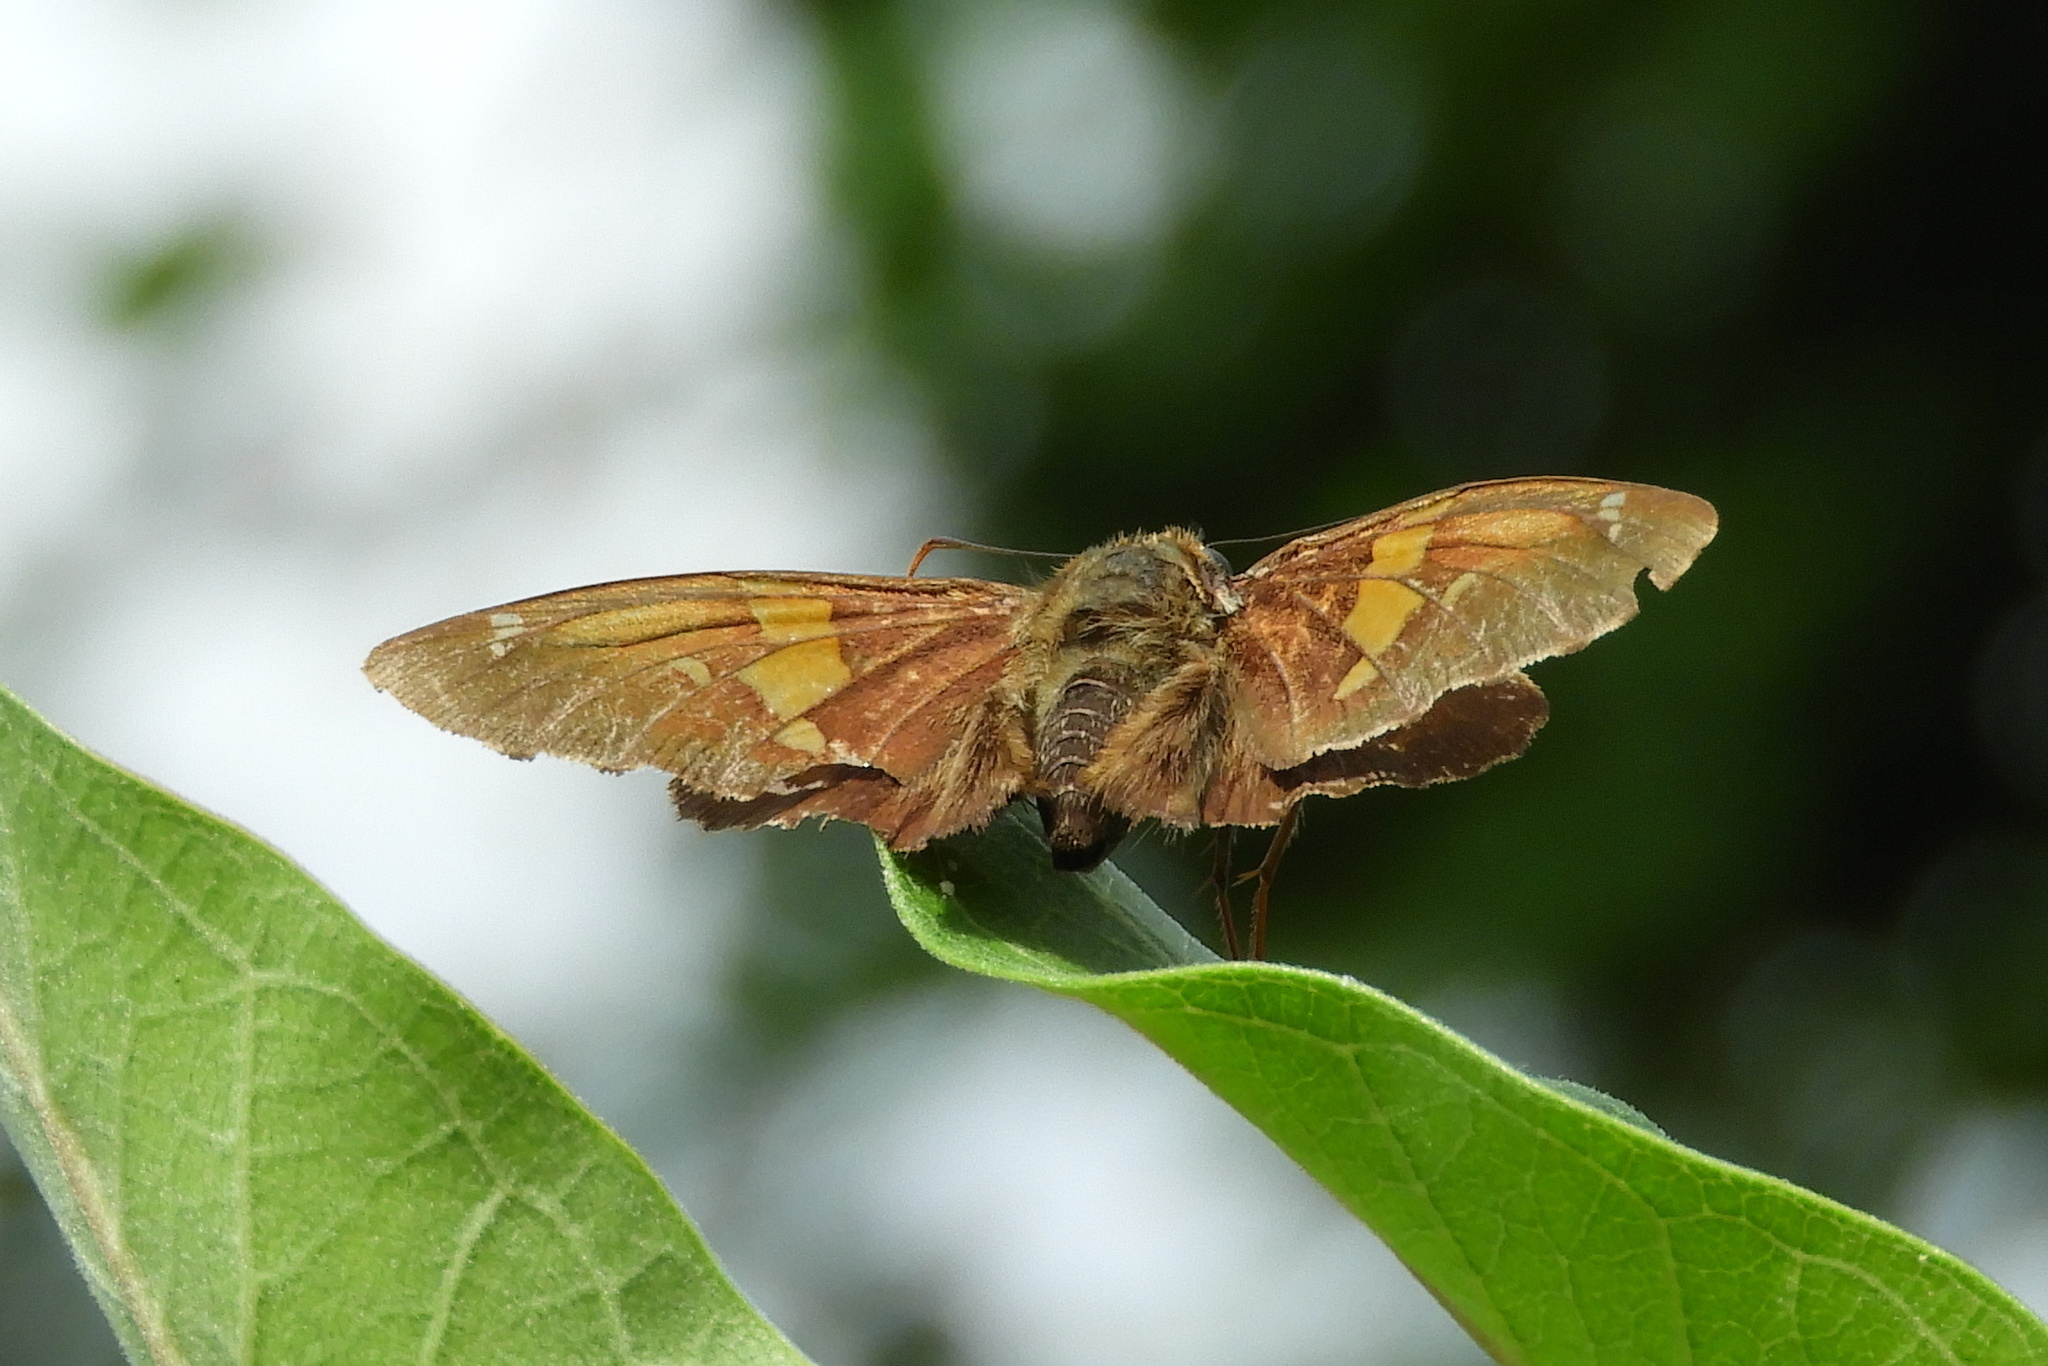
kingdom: Animalia
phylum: Arthropoda
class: Insecta
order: Lepidoptera
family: Hesperiidae
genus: Epargyreus
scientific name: Epargyreus clarus
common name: Silver-spotted skipper
